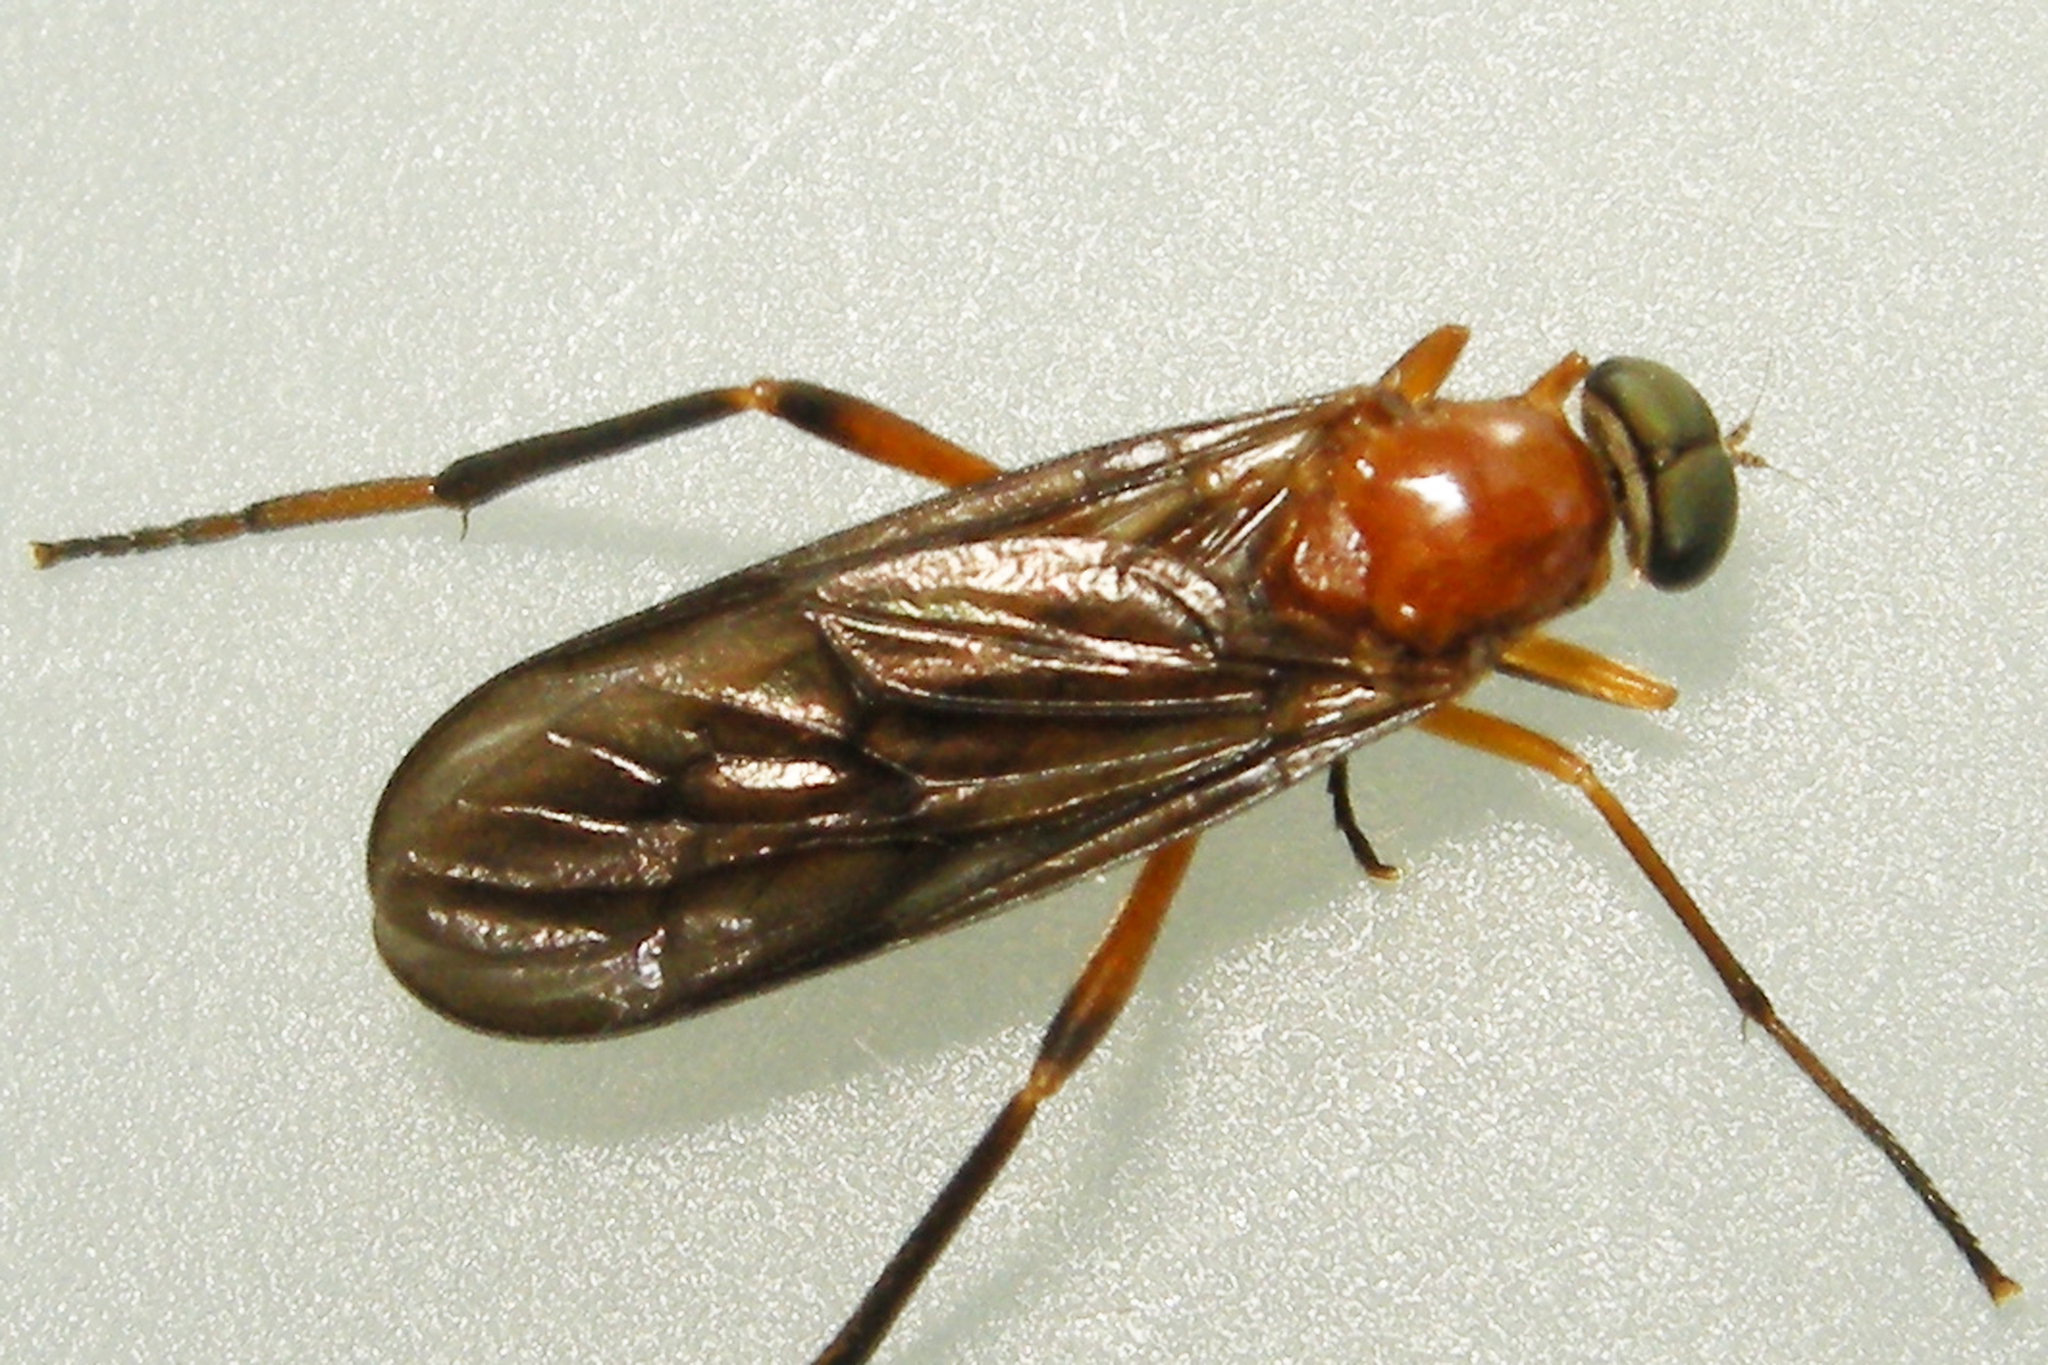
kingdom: Animalia
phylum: Arthropoda
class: Insecta
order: Diptera
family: Xylophagidae
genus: Dialysis
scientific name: Dialysis fasciventris
